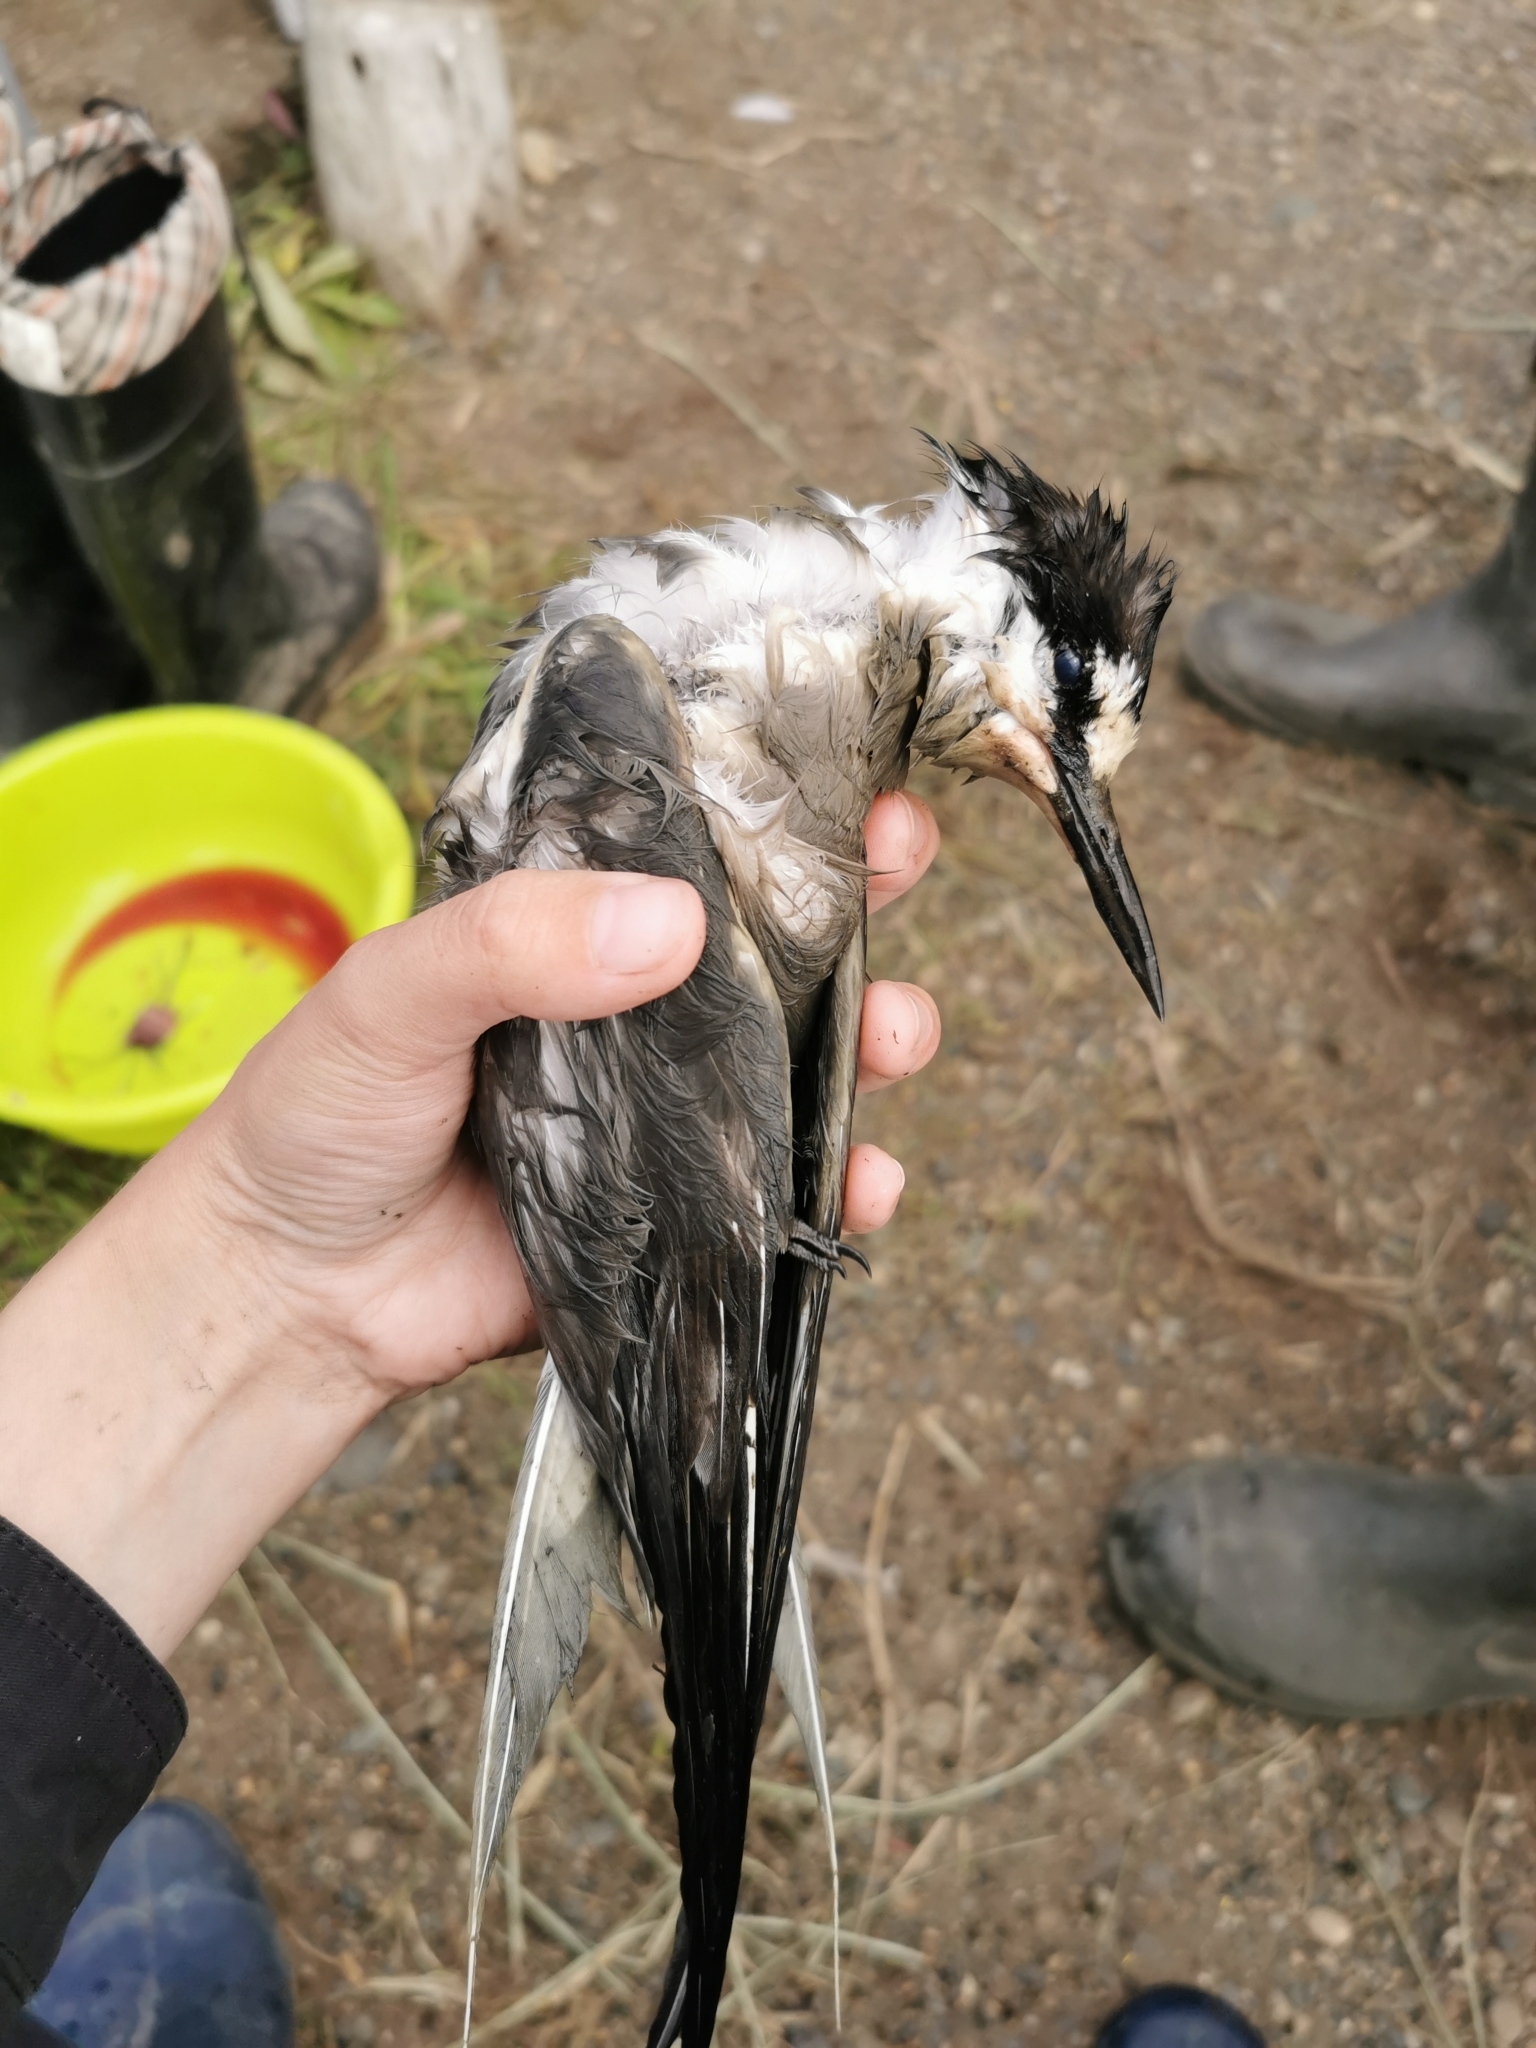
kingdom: Animalia
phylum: Chordata
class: Aves
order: Charadriiformes
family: Laridae
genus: Onychoprion
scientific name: Onychoprion aleuticus
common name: Aleutian tern
